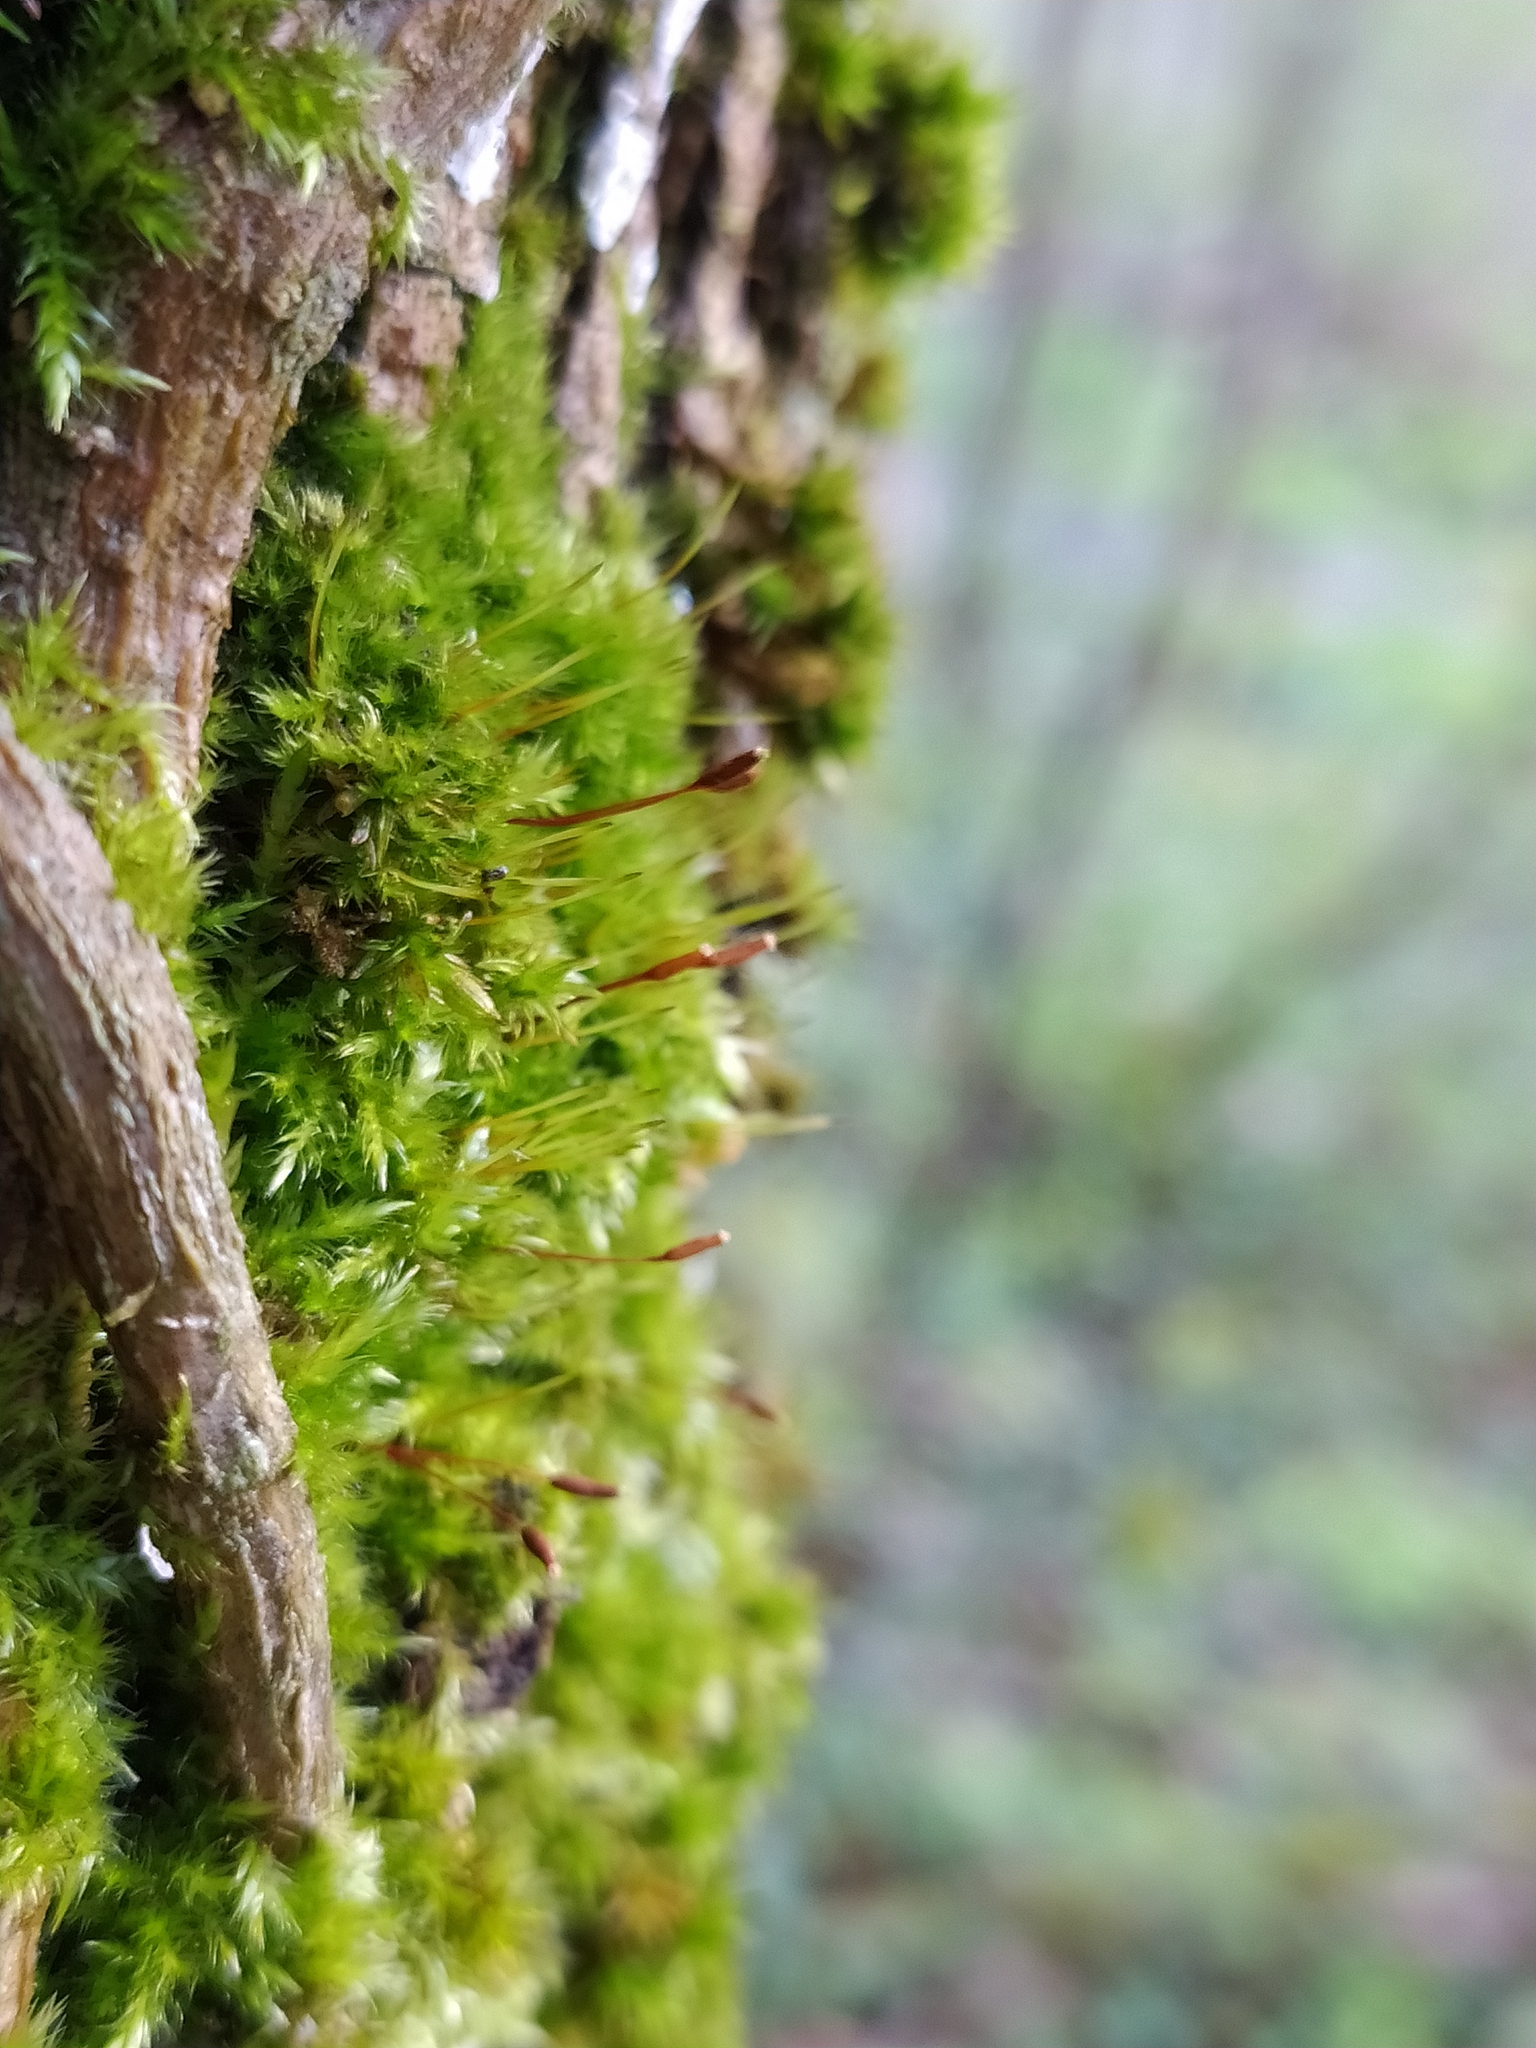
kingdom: Plantae
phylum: Bryophyta
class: Bryopsida
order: Hypnales
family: Pylaisiaceae
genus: Pylaisia
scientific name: Pylaisia polyantha
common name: Many-flowered leskea
